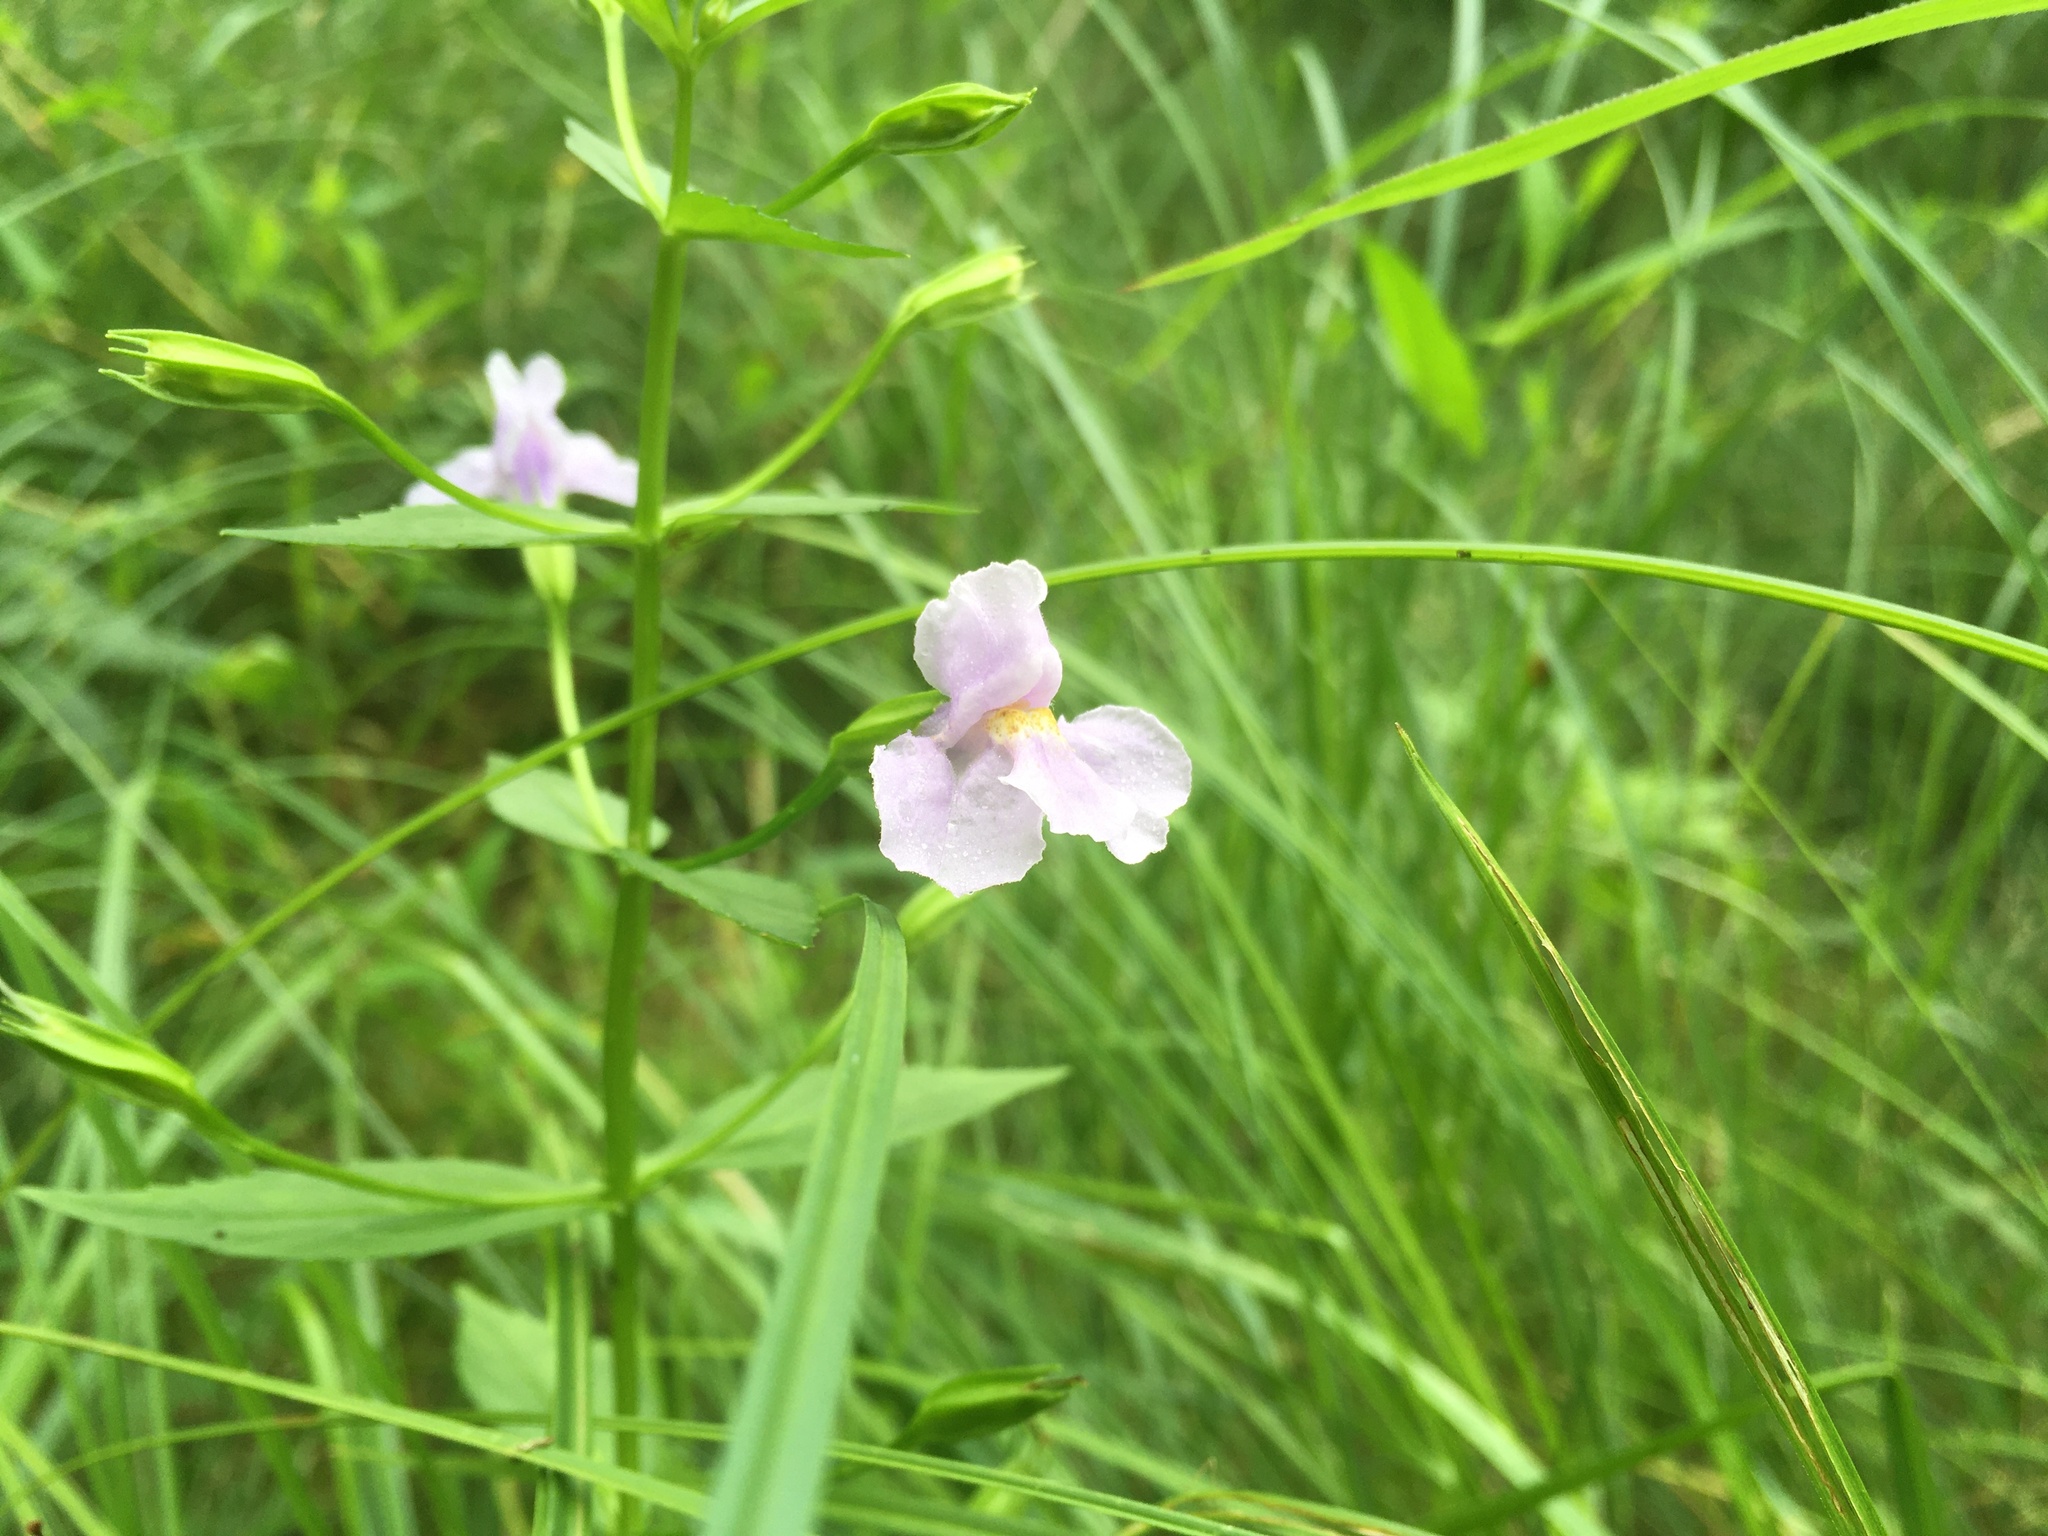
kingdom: Plantae
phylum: Tracheophyta
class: Magnoliopsida
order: Lamiales
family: Phrymaceae
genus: Mimulus
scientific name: Mimulus ringens
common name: Allegheny monkeyflower
